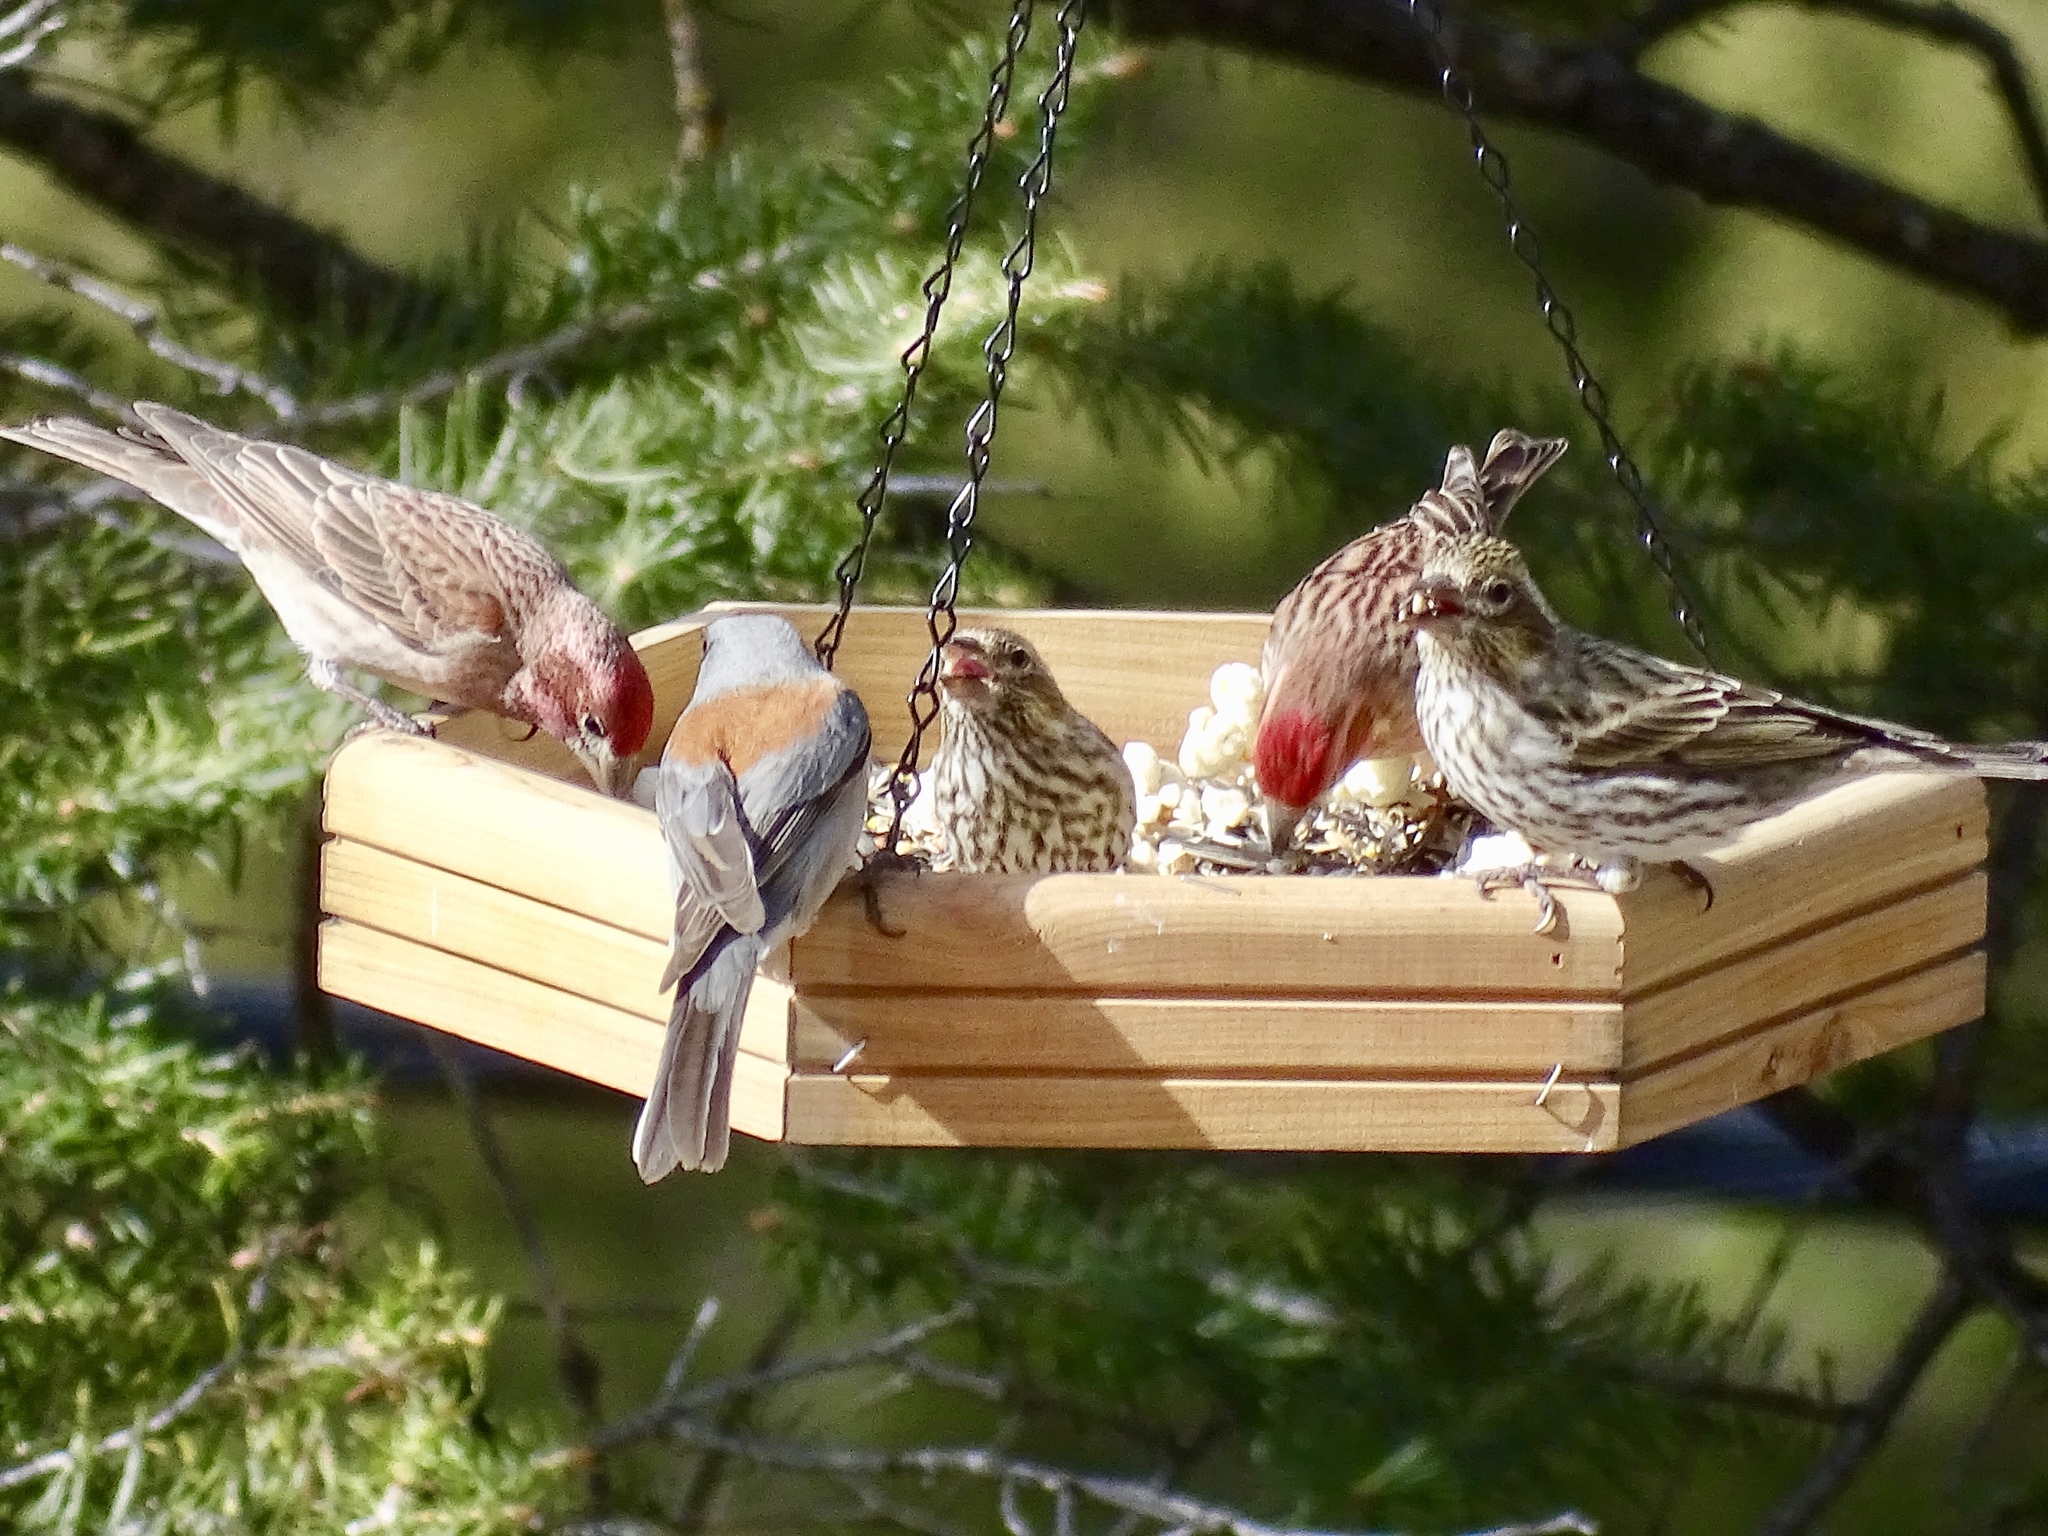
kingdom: Animalia
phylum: Chordata
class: Aves
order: Passeriformes
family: Passerellidae
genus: Junco
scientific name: Junco hyemalis
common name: Dark-eyed junco
